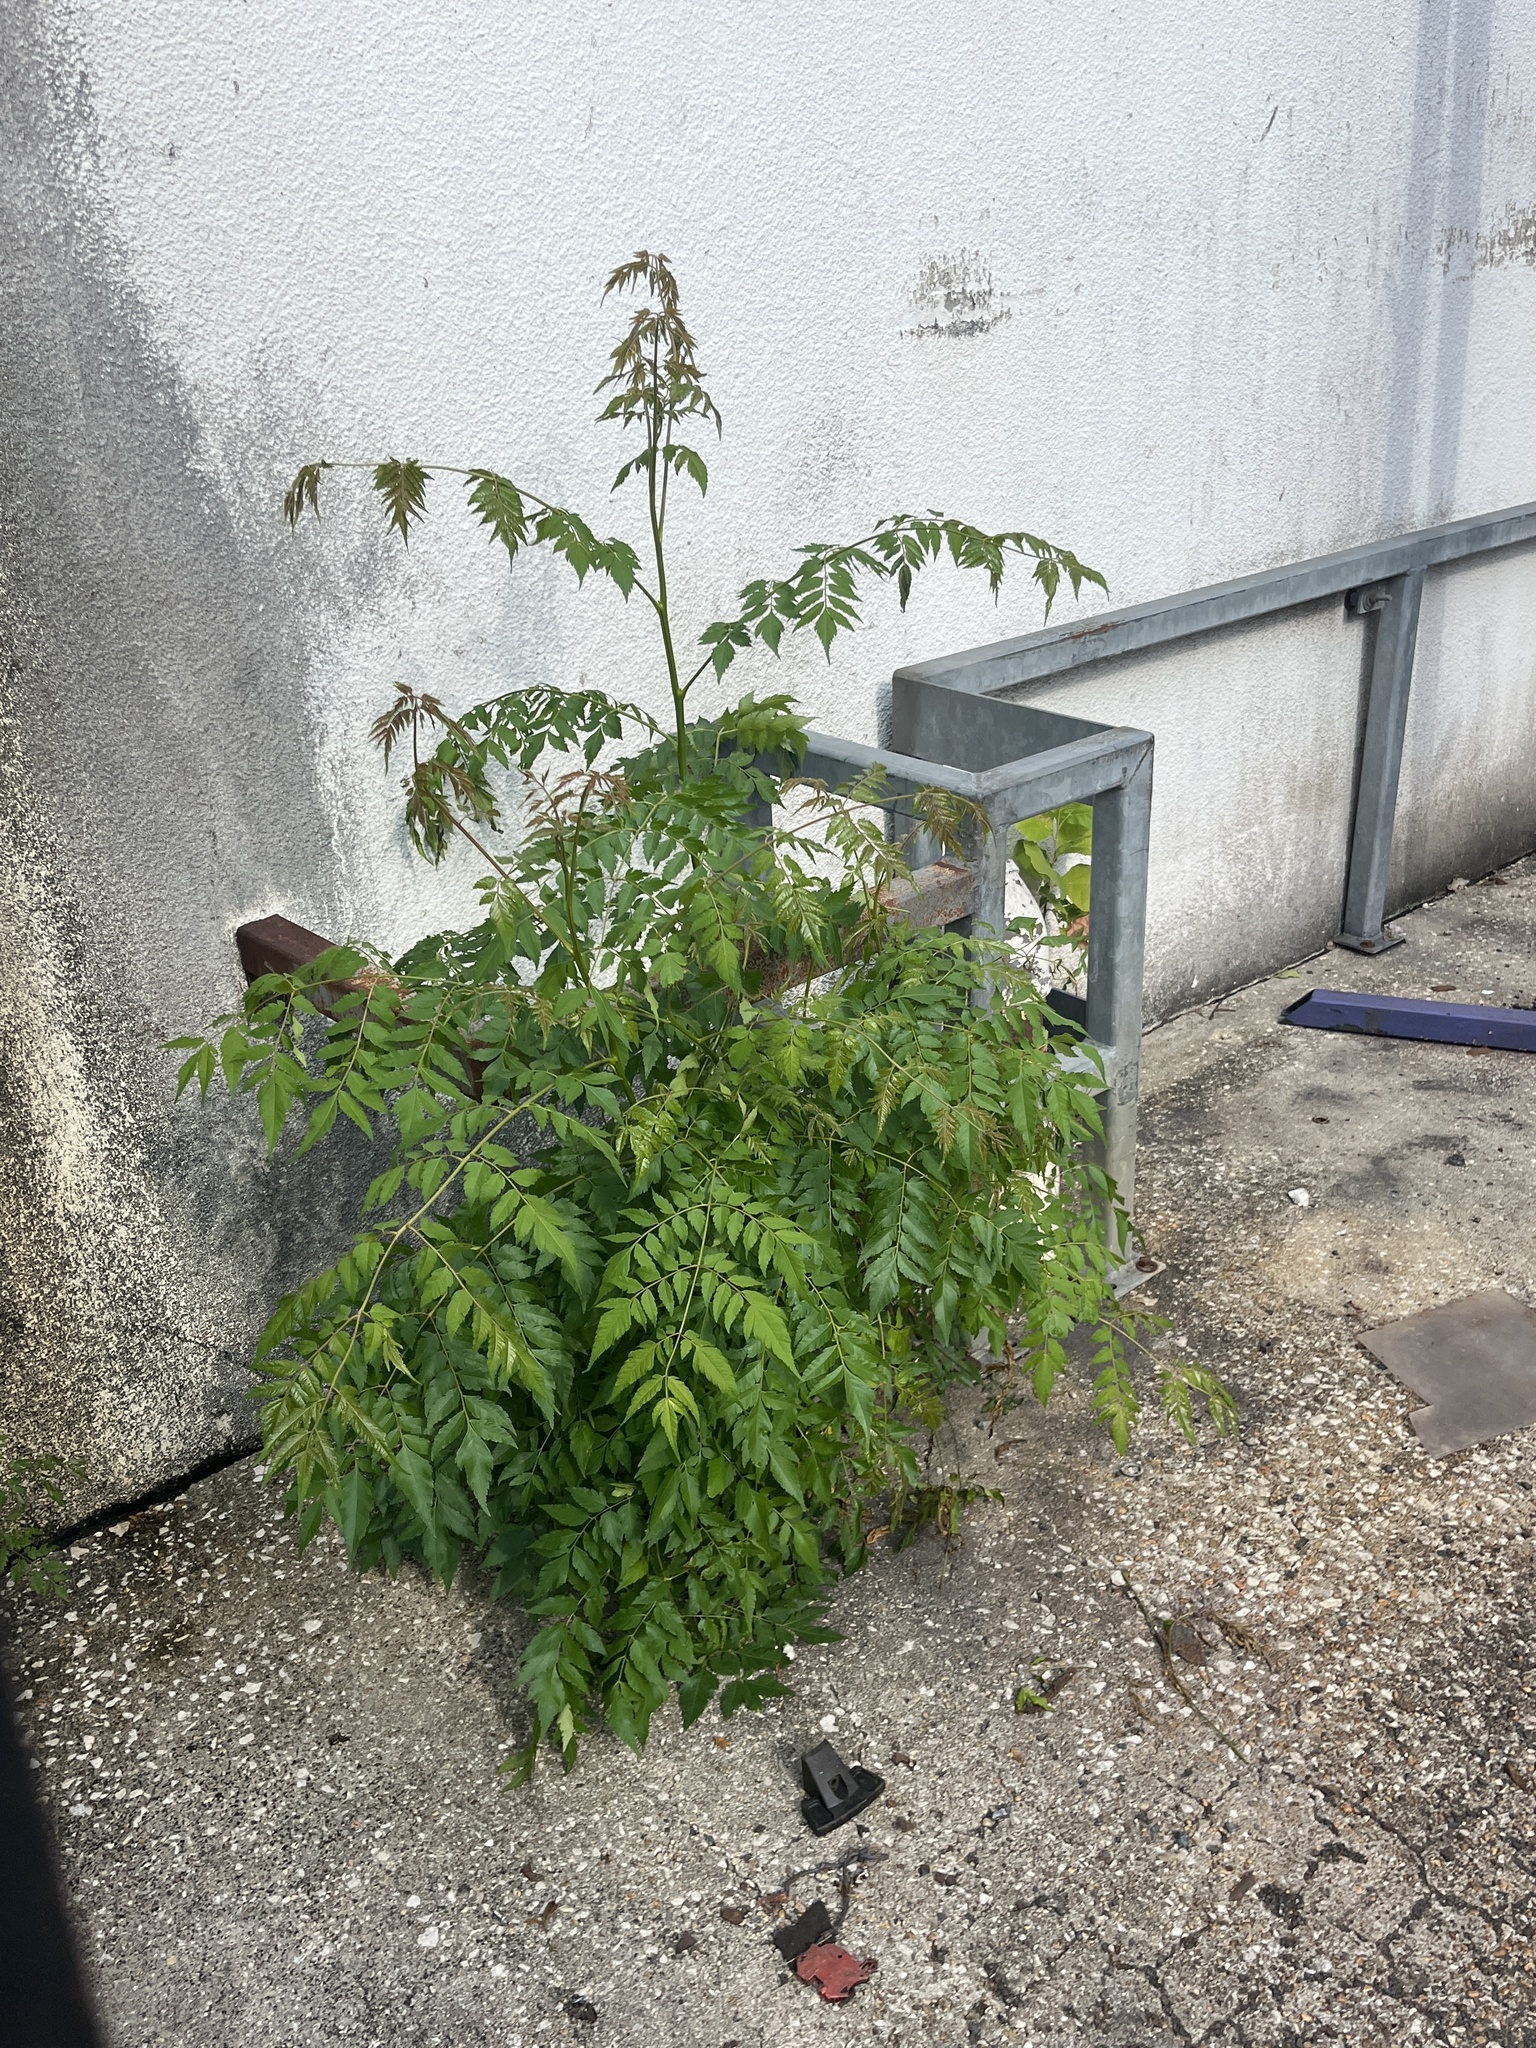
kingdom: Plantae
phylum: Tracheophyta
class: Magnoliopsida
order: Sapindales
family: Sapindaceae
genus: Koelreuteria
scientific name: Koelreuteria elegans
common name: Chinese flame tree
